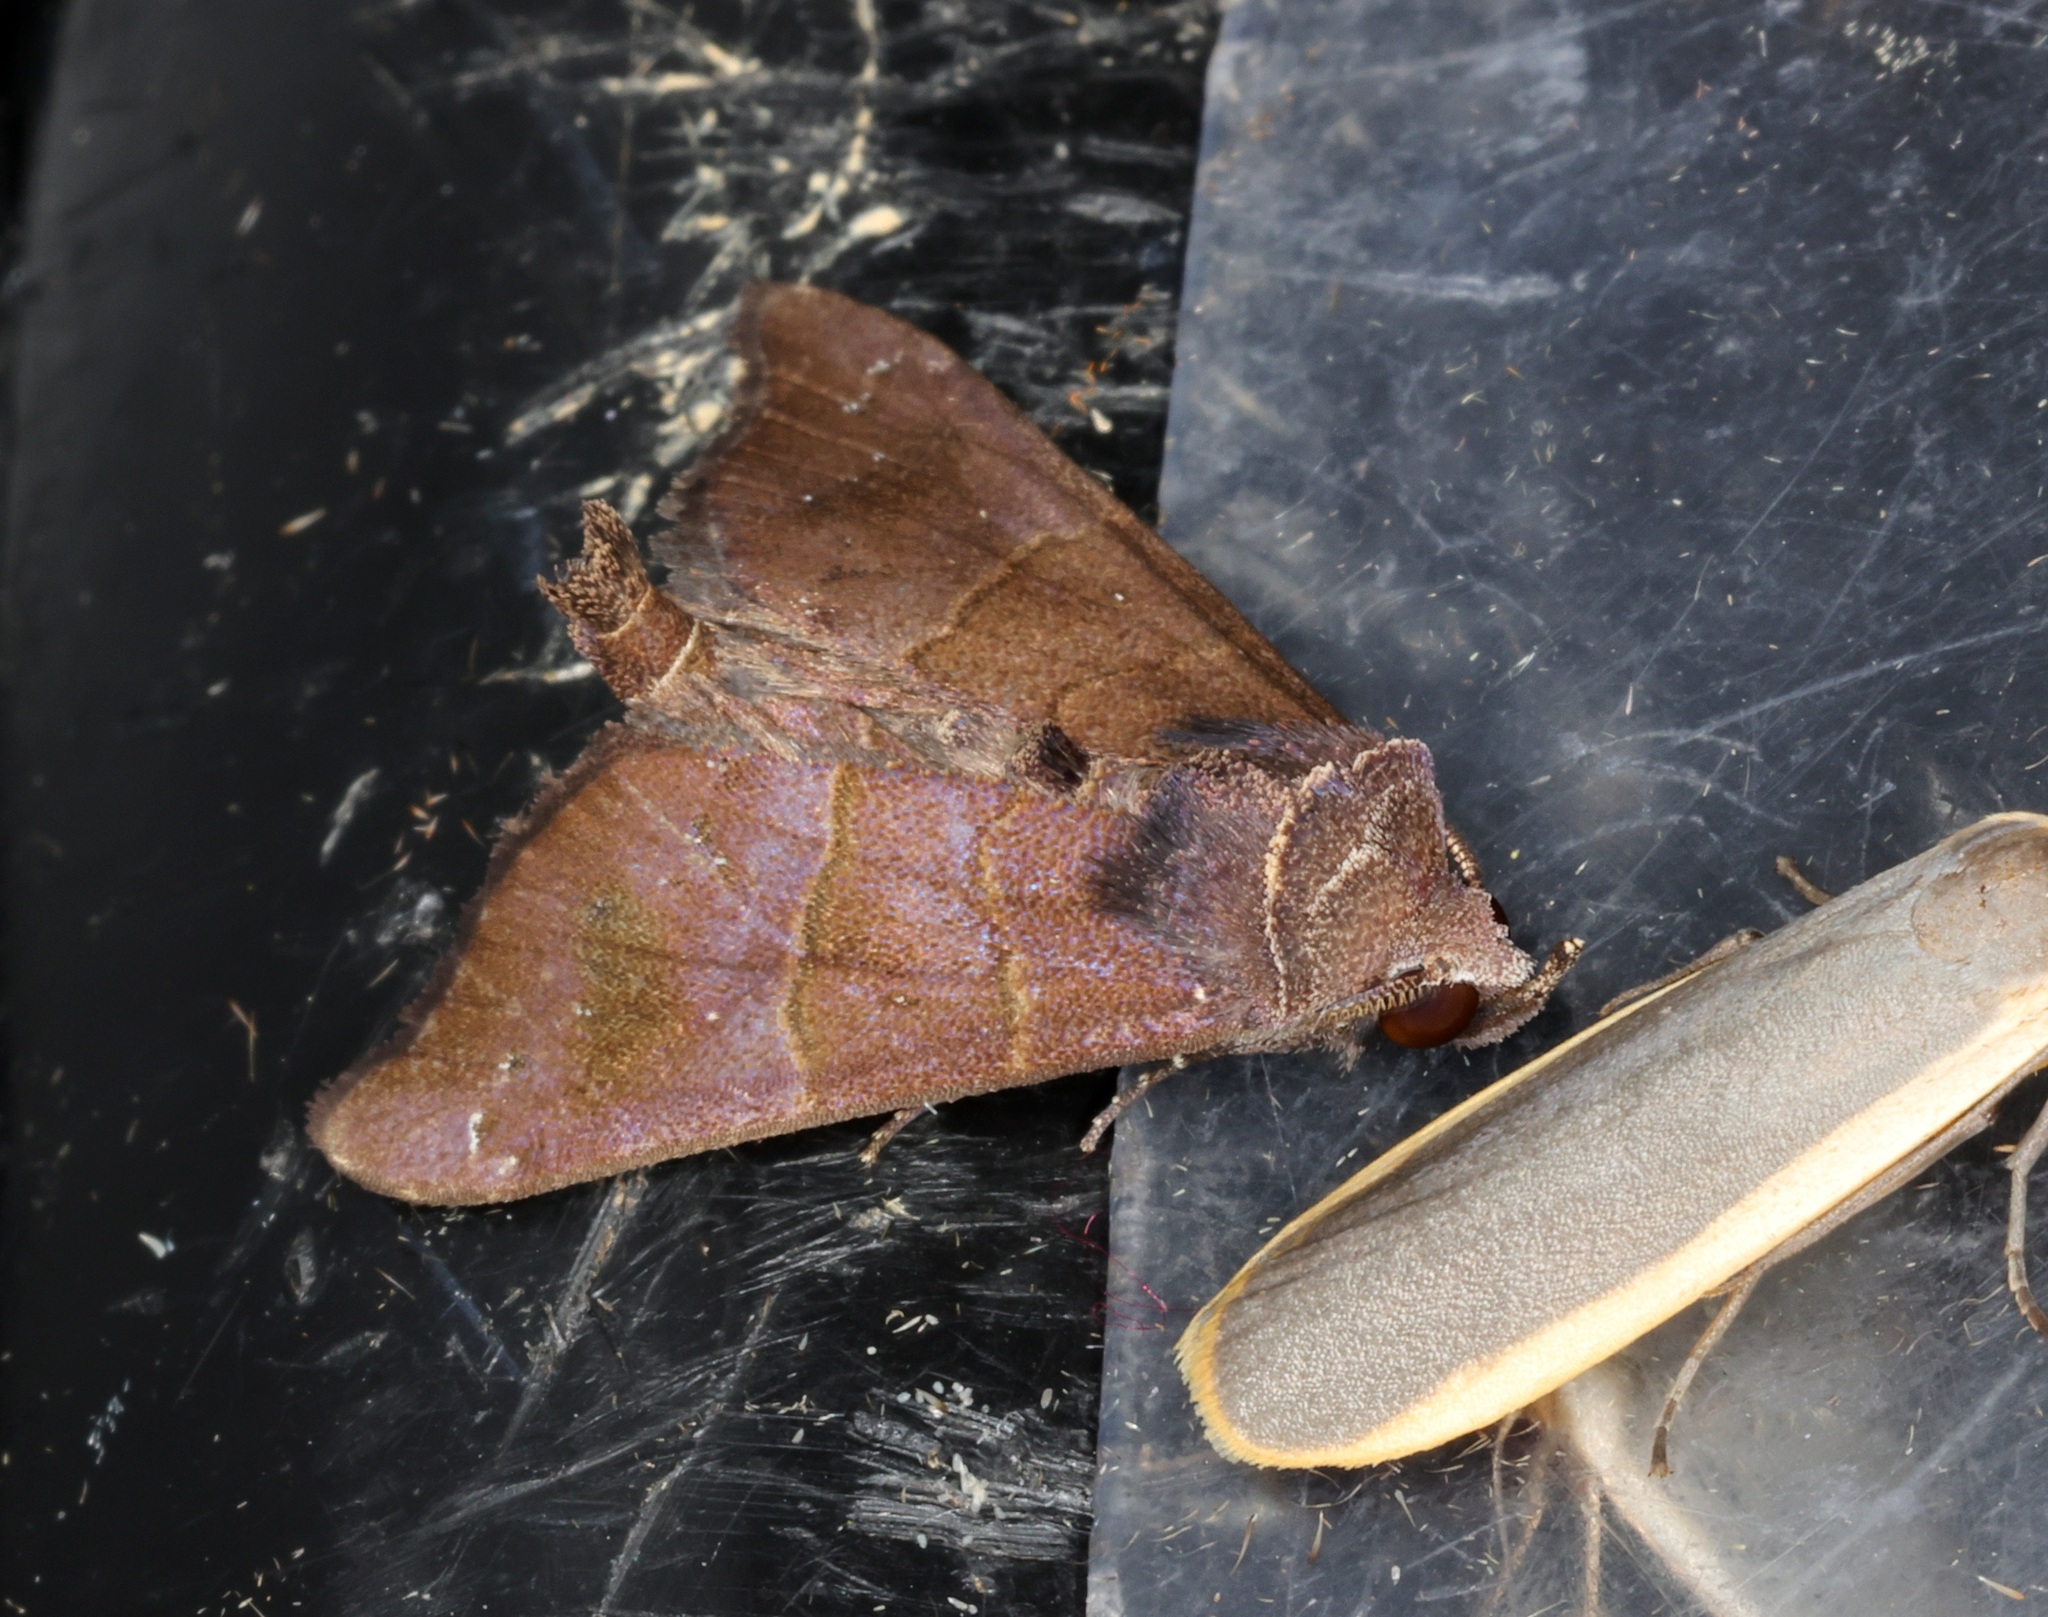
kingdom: Animalia
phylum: Arthropoda
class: Insecta
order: Lepidoptera
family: Erebidae
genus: Acidon
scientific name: Acidon paradoxa
